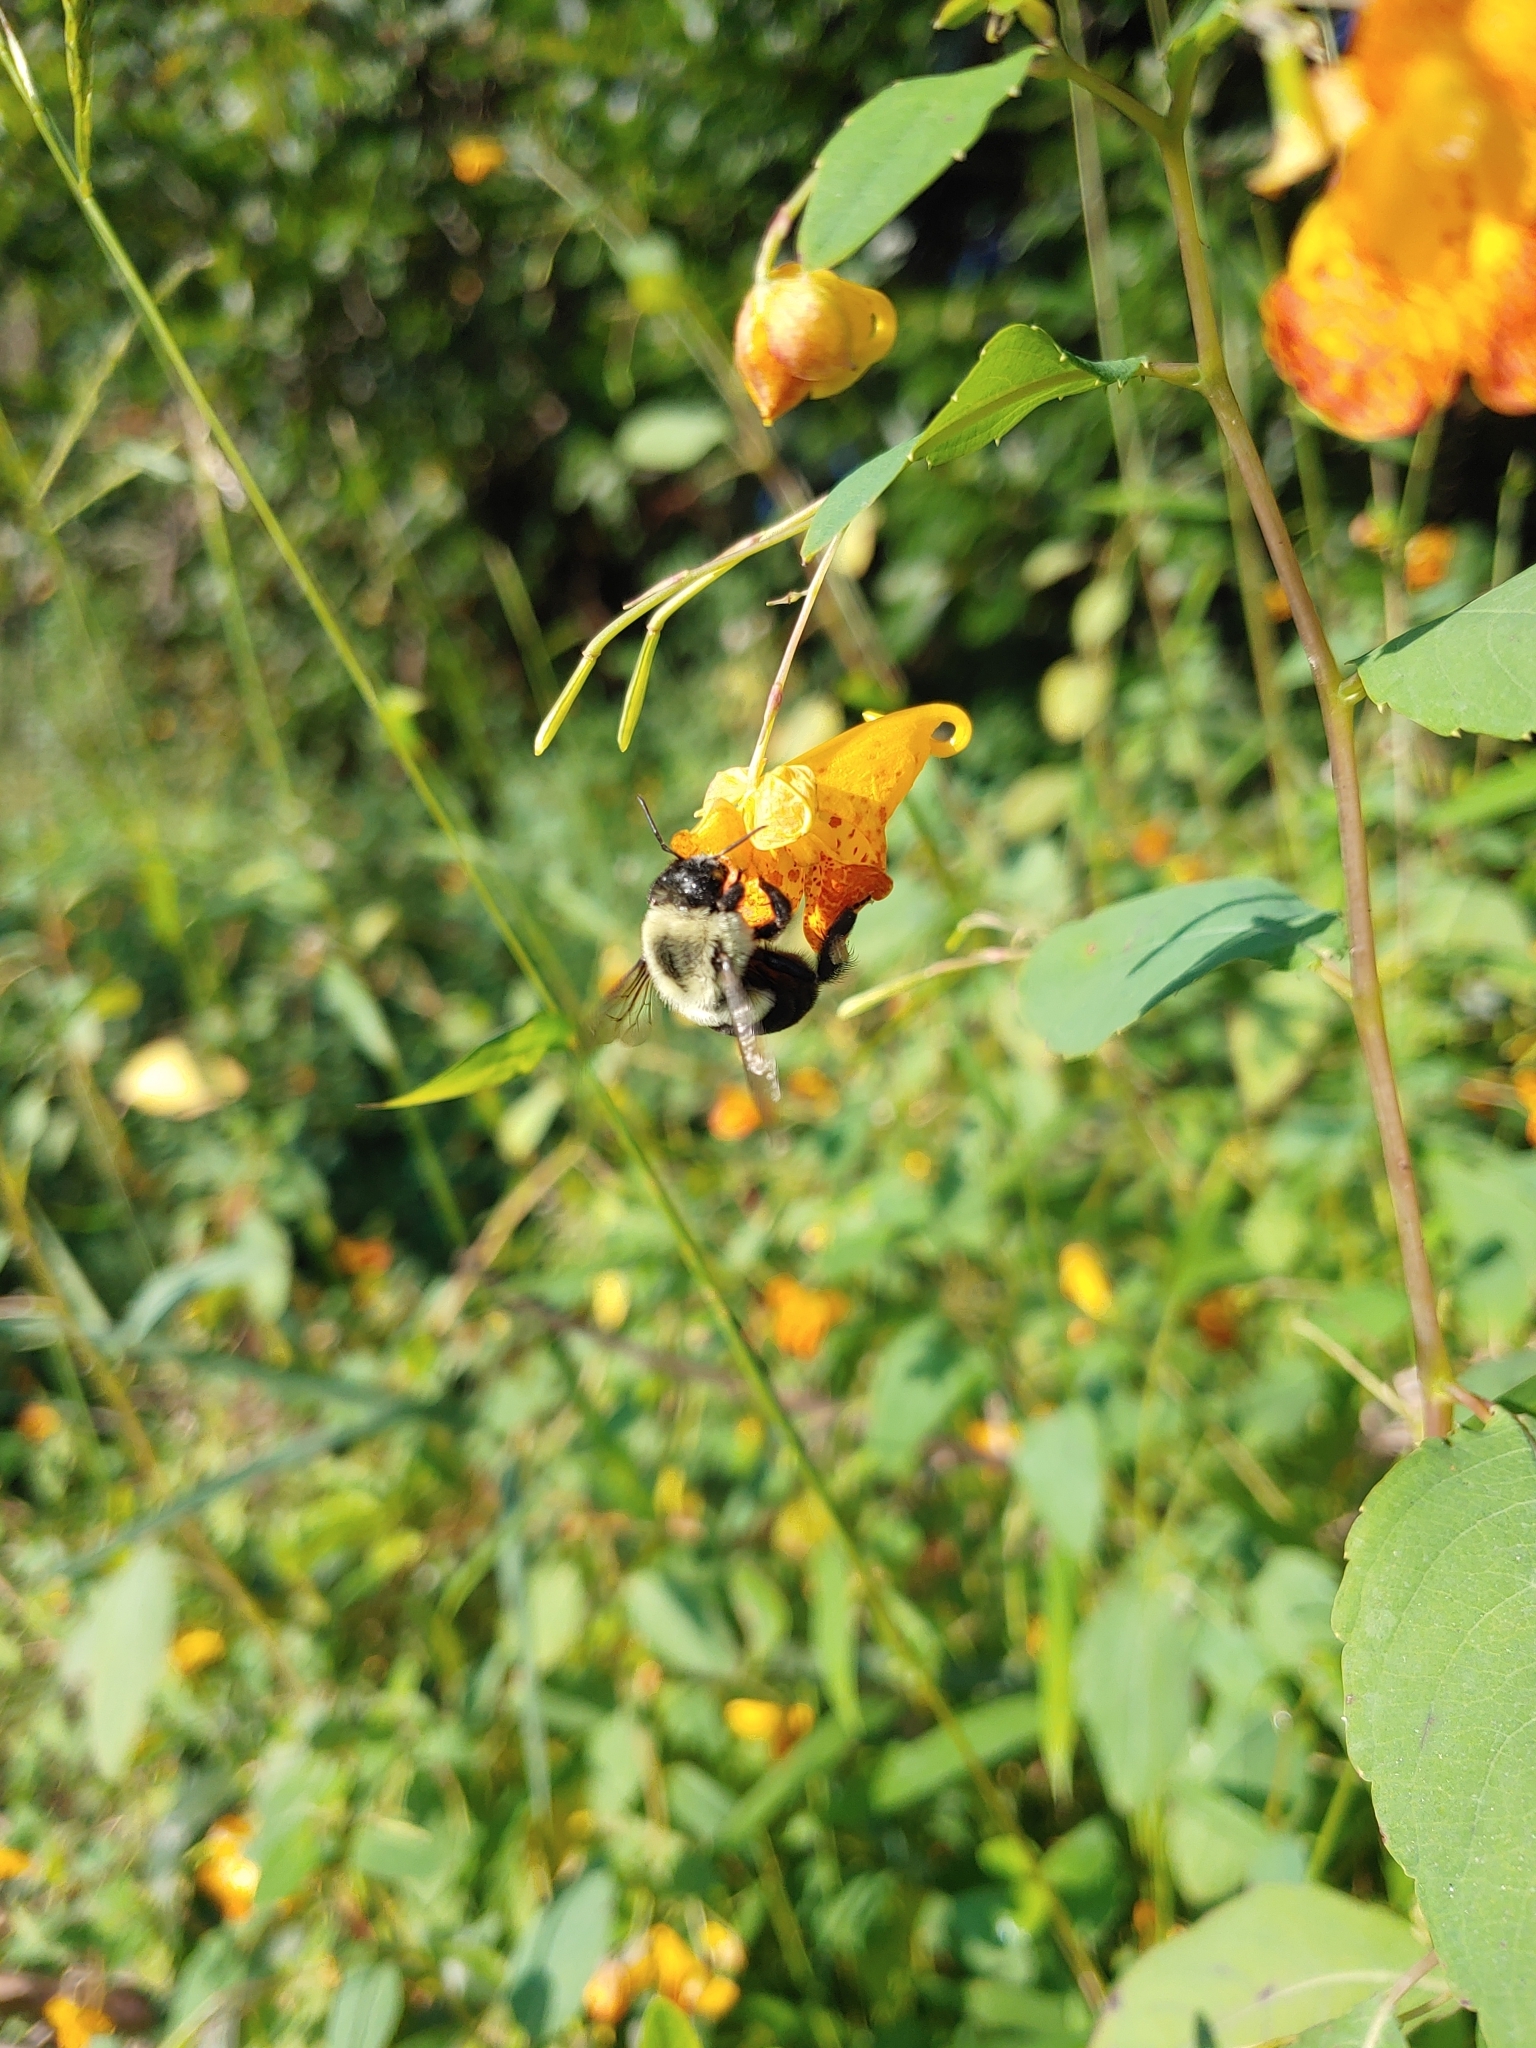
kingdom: Animalia
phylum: Arthropoda
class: Insecta
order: Hymenoptera
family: Apidae
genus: Bombus
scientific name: Bombus impatiens
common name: Common eastern bumble bee
